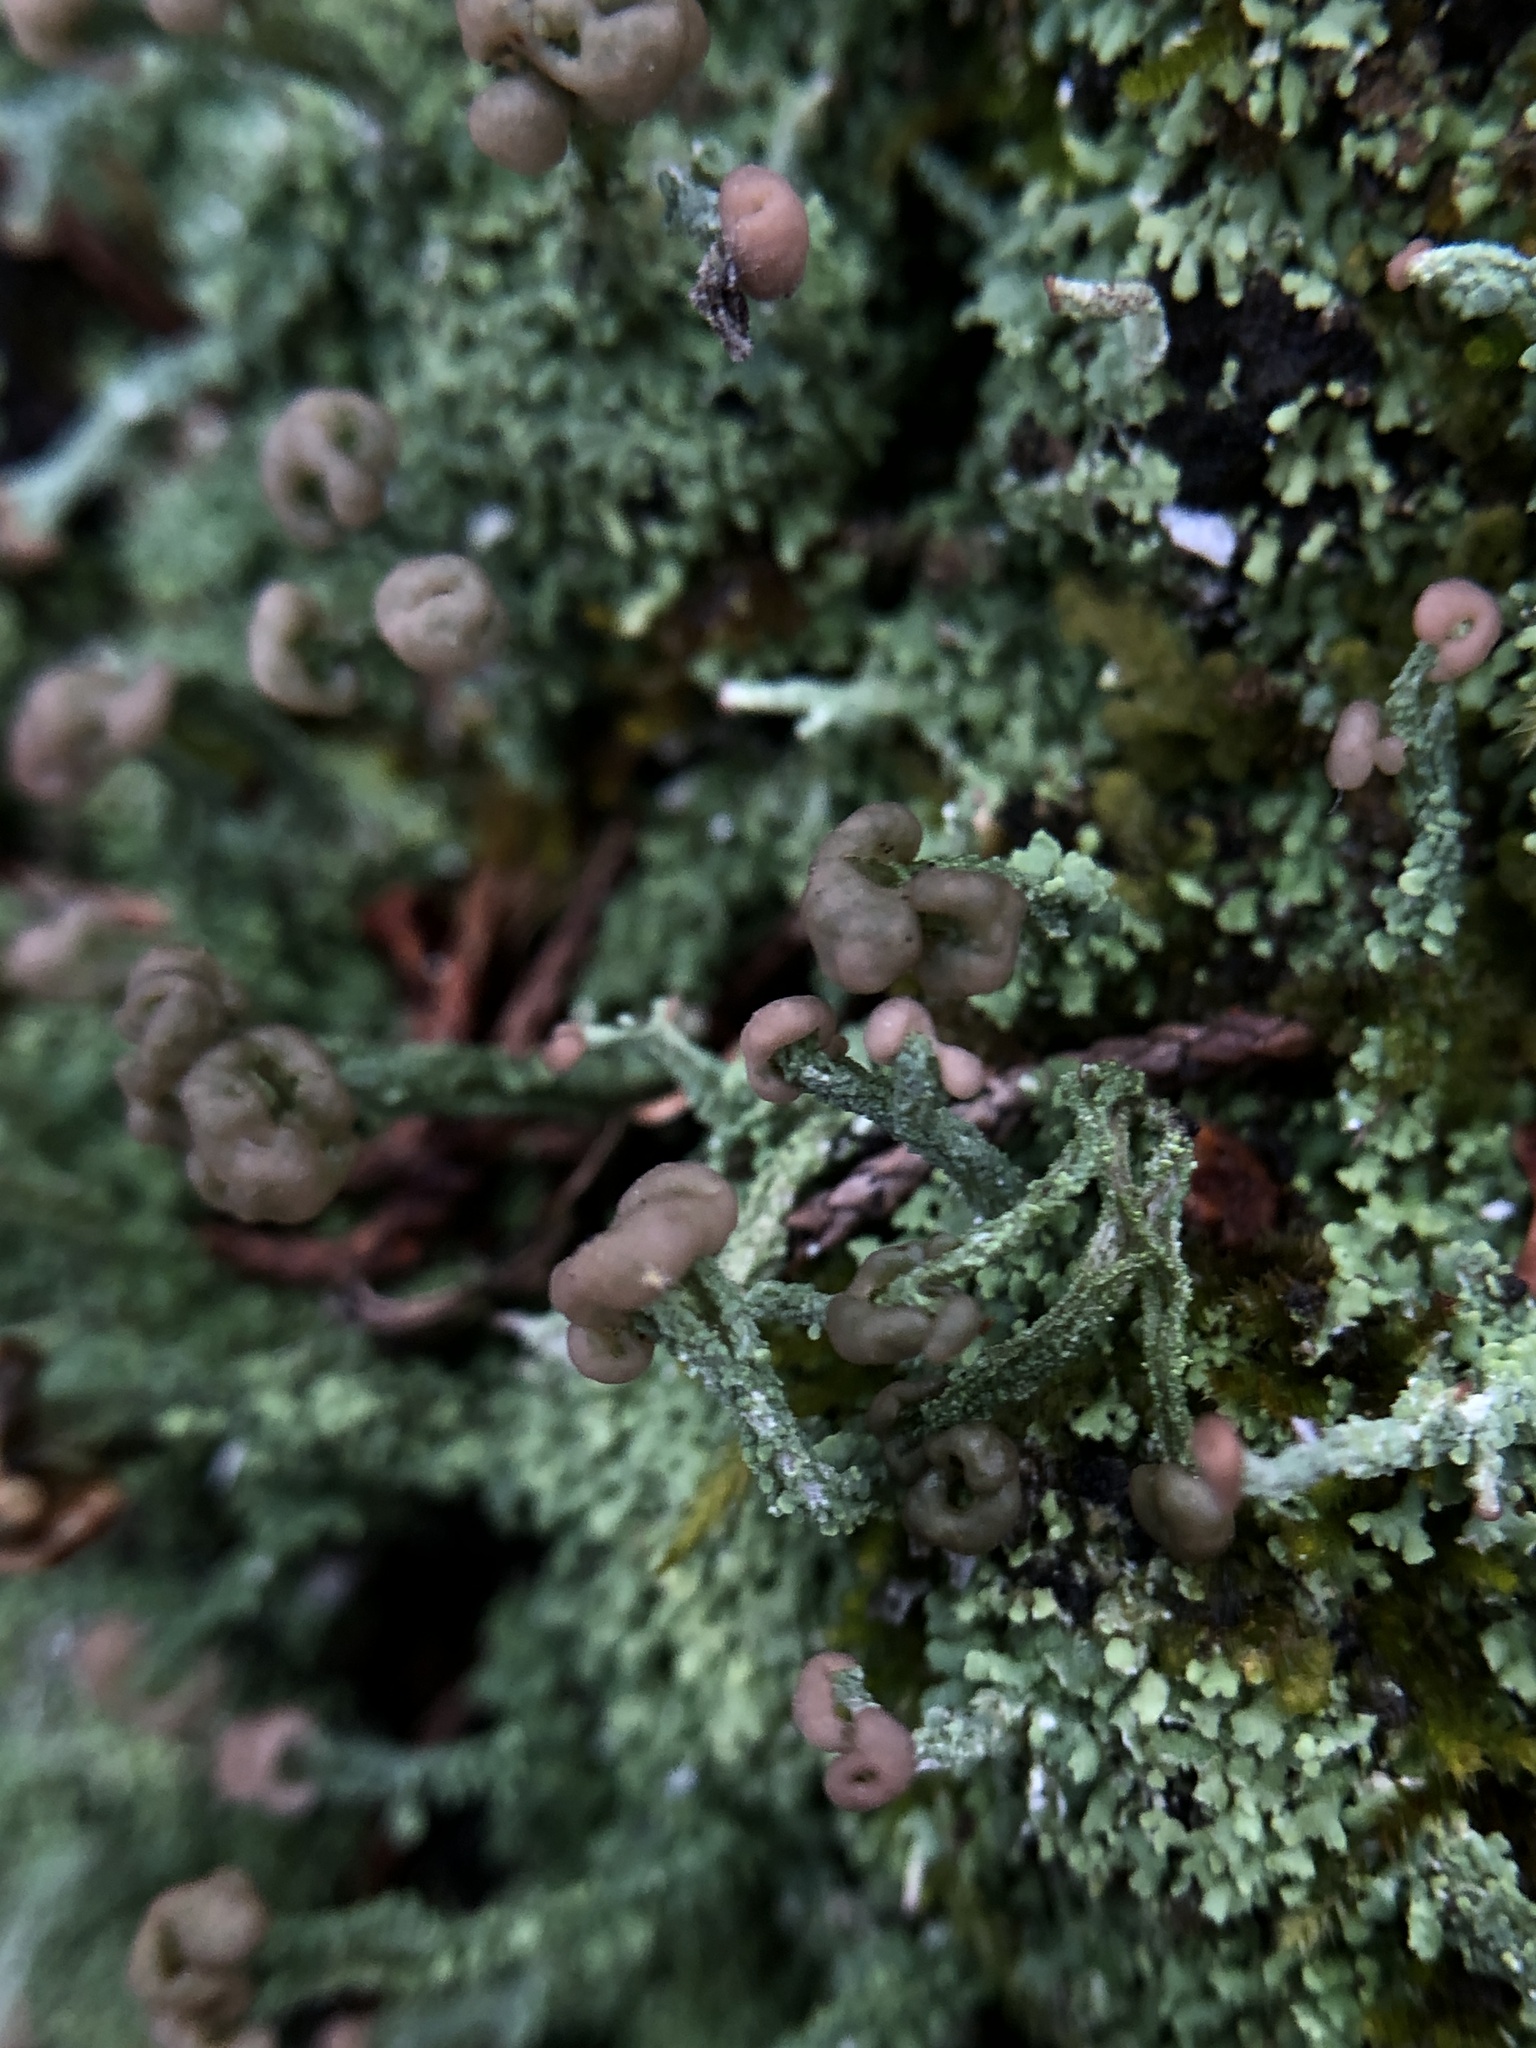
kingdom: Fungi
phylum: Ascomycota
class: Lecanoromycetes
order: Lecanorales
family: Cladoniaceae
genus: Cladonia
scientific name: Cladonia peziziformis
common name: Cup lichen
